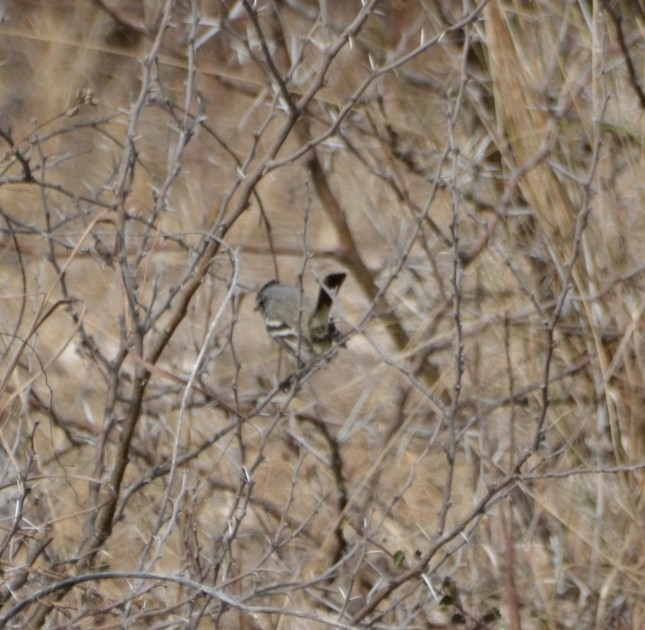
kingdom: Animalia
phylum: Chordata
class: Aves
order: Passeriformes
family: Tyrannidae
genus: Anairetes
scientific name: Anairetes flavirostris
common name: Yellow-billed tit-tyrant
